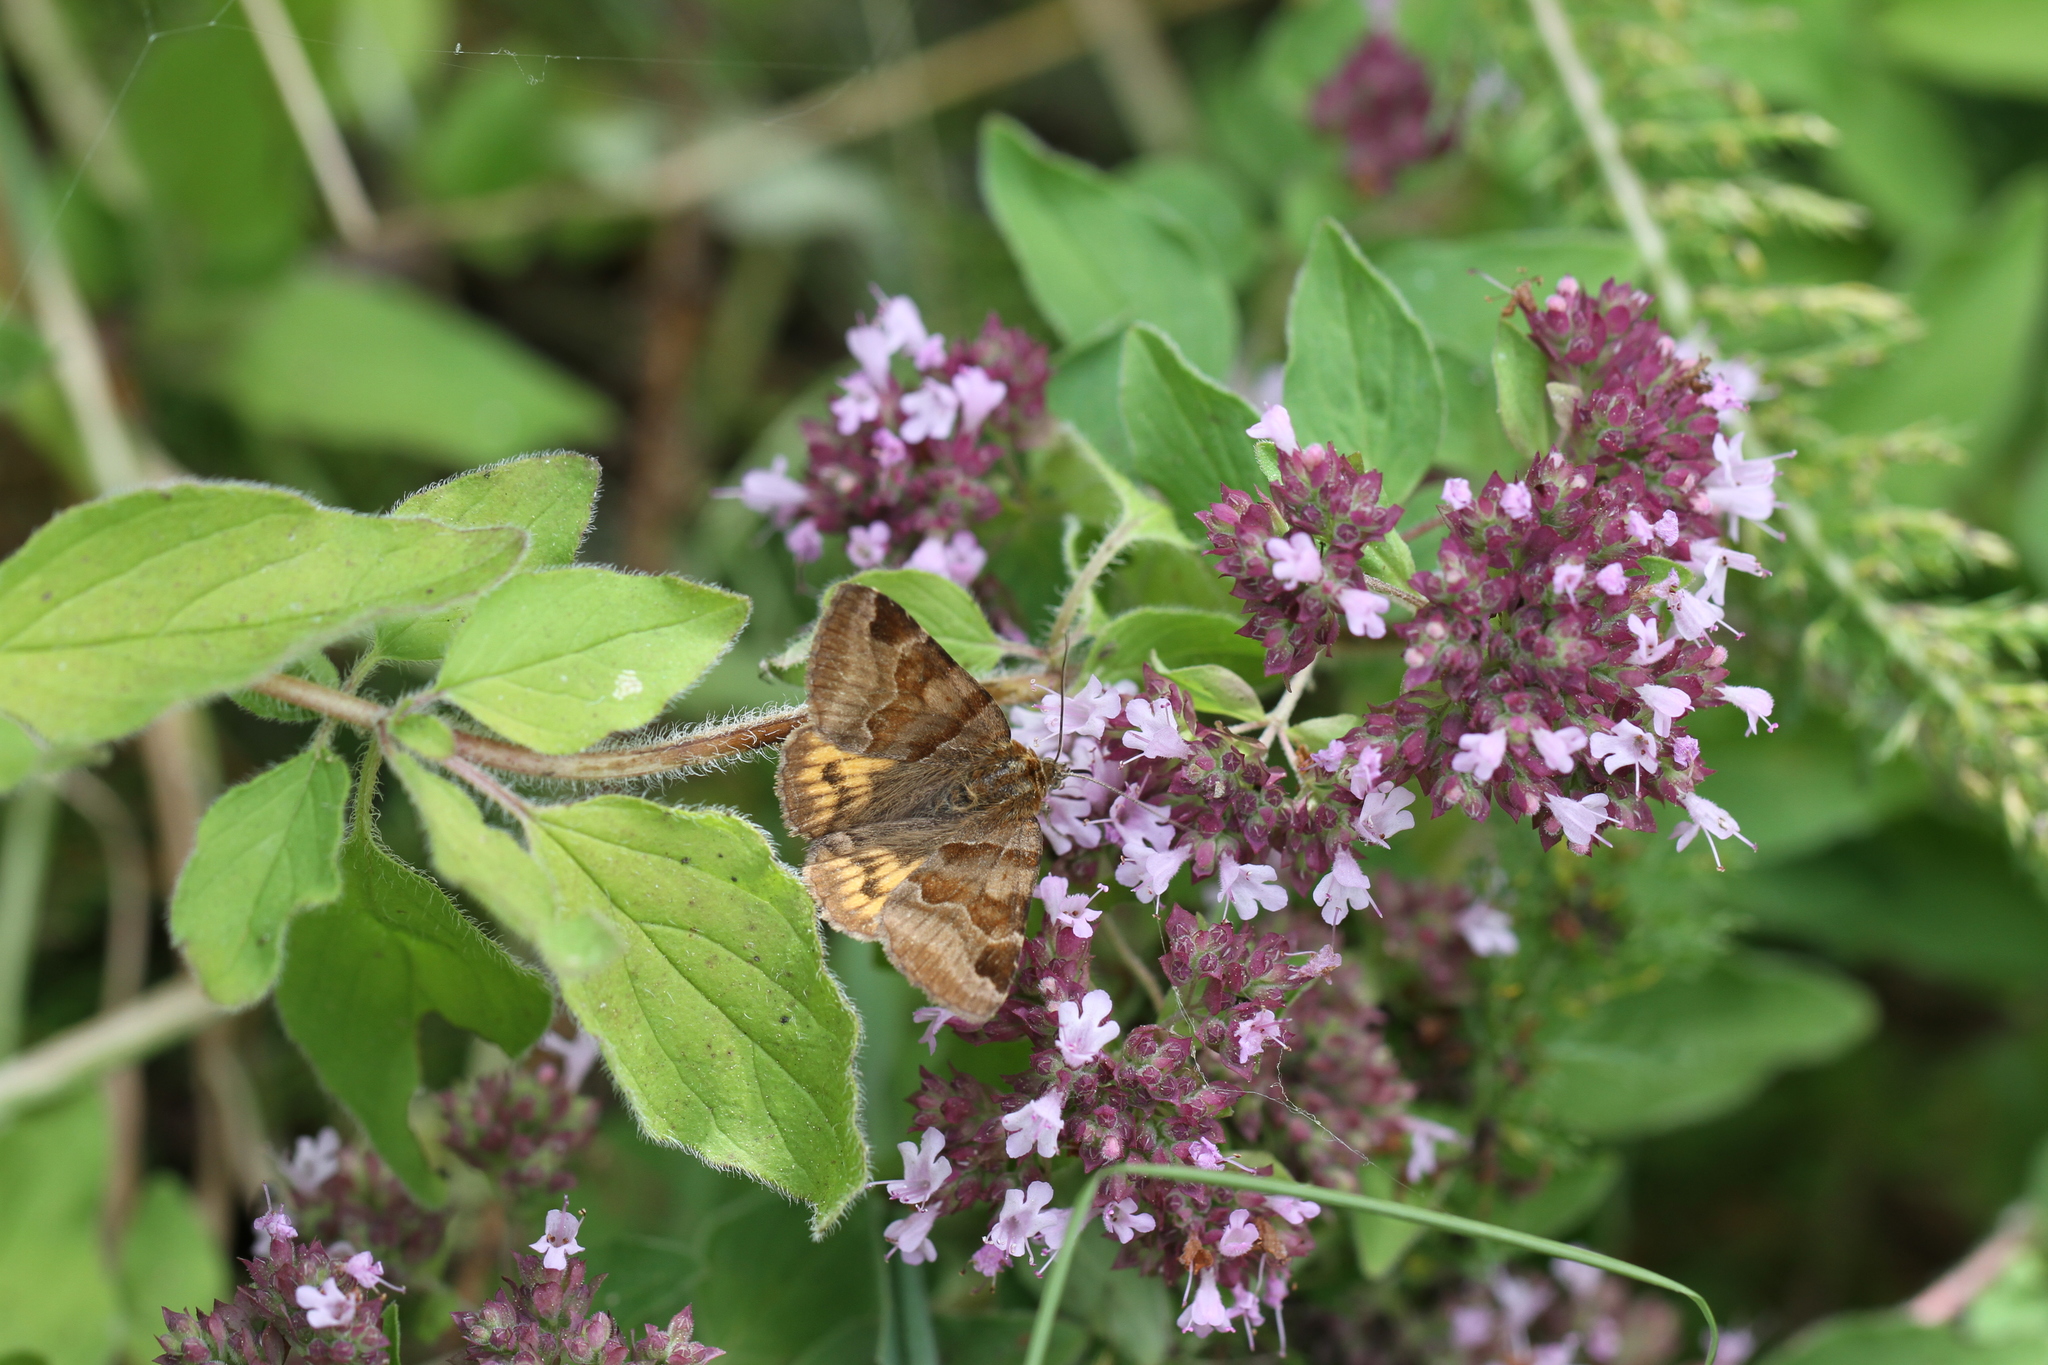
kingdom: Animalia
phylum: Arthropoda
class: Insecta
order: Lepidoptera
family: Erebidae
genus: Euclidia
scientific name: Euclidia glyphica
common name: Burnet companion
